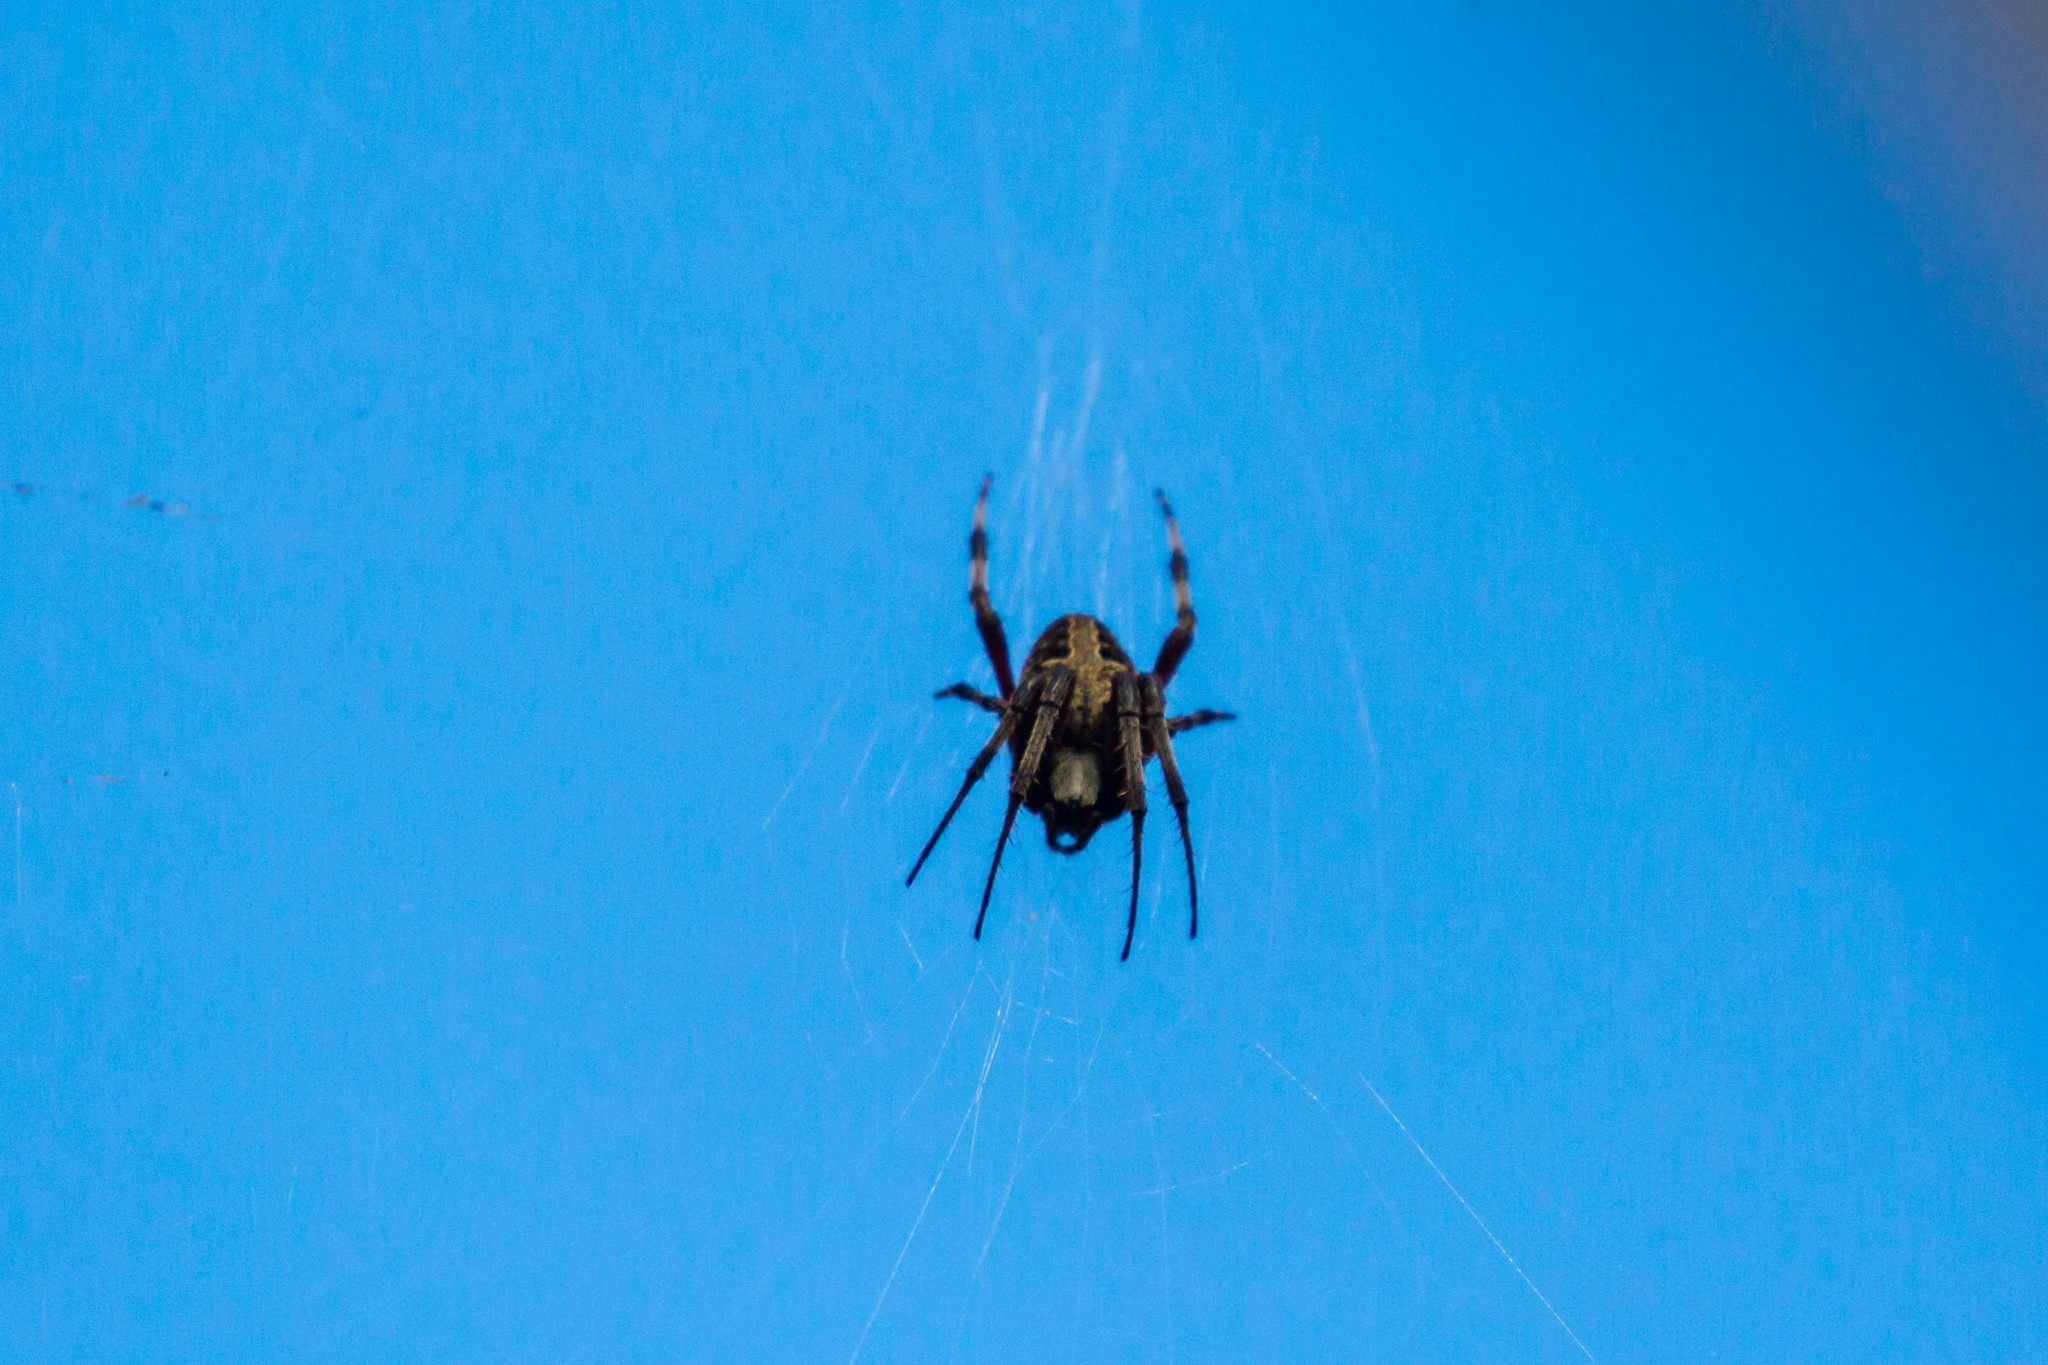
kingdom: Animalia
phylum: Arthropoda
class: Arachnida
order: Araneae
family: Araneidae
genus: Neoscona
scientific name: Neoscona domiciliorum
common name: Red-femured spotted orbweaver
